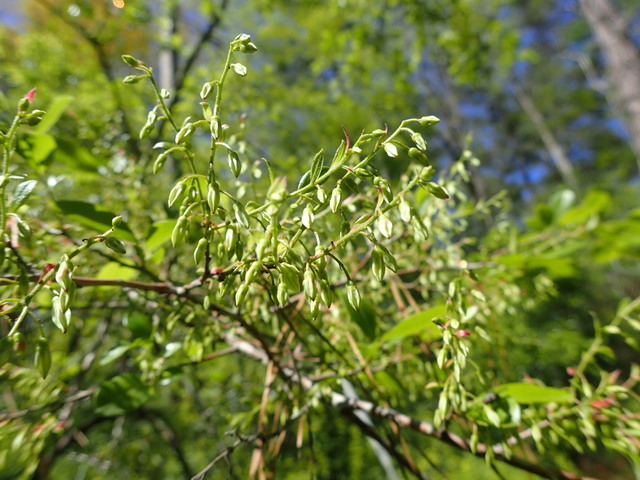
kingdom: Plantae
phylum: Tracheophyta
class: Magnoliopsida
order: Ericales
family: Ericaceae
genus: Vaccinium
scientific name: Vaccinium arboreum
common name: Farkleberry
